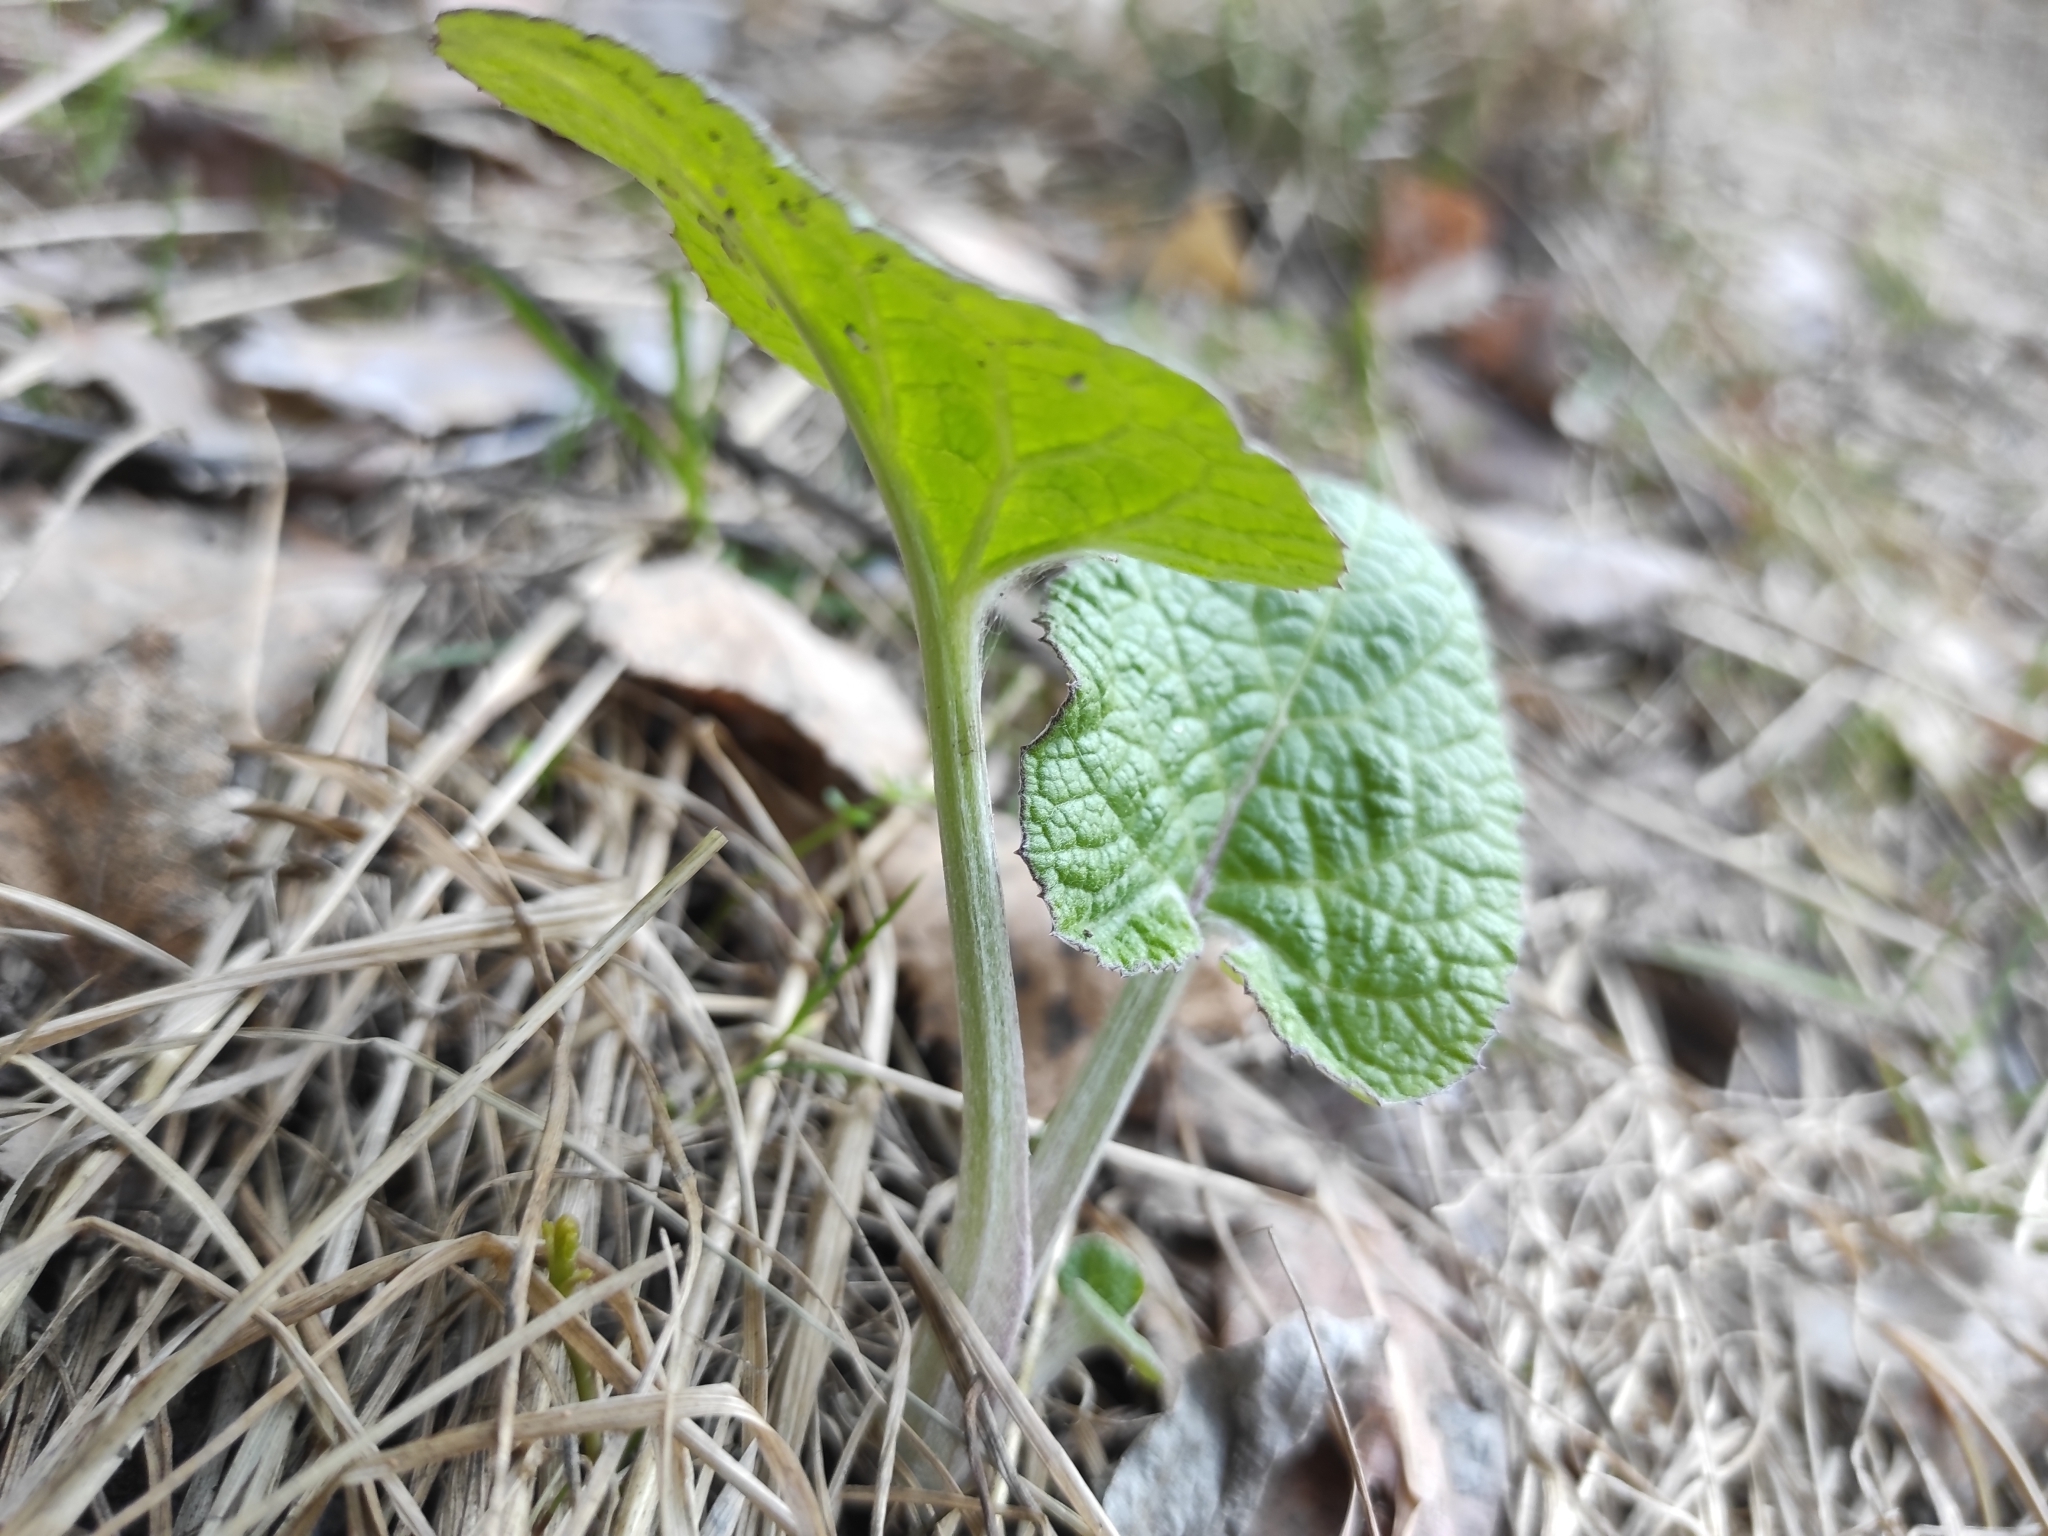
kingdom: Plantae
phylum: Tracheophyta
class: Magnoliopsida
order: Asterales
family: Asteraceae
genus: Arctium
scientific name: Arctium tomentosum
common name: Woolly burdock
